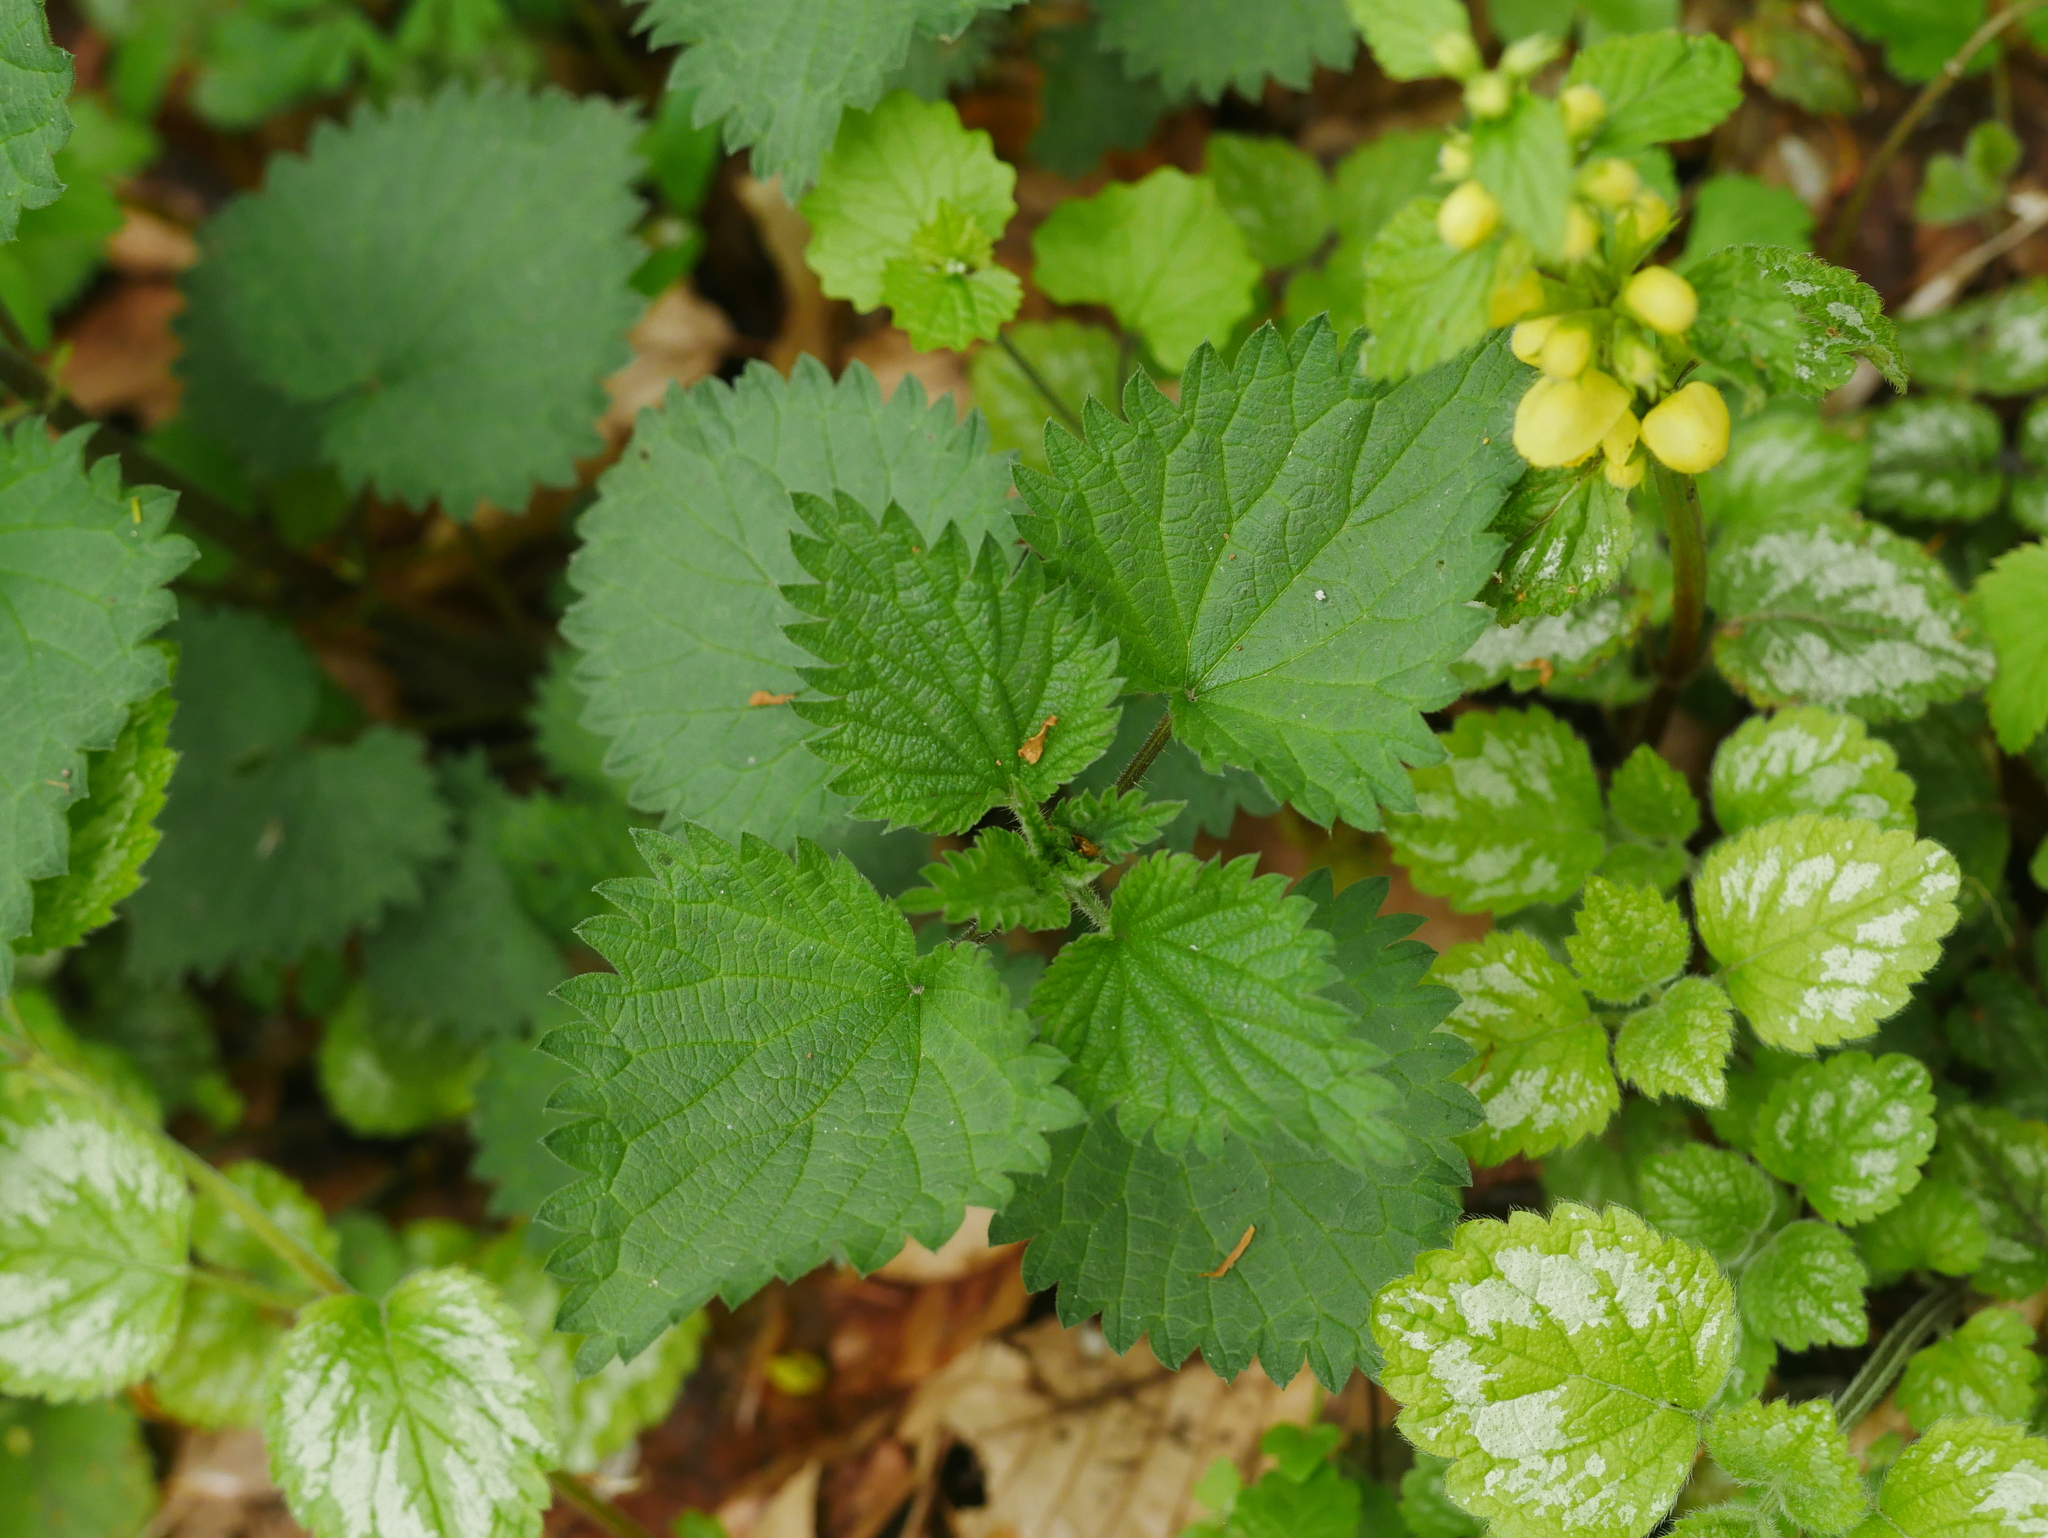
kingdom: Plantae
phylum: Tracheophyta
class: Magnoliopsida
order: Rosales
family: Urticaceae
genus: Urtica
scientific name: Urtica dioica
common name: Common nettle
